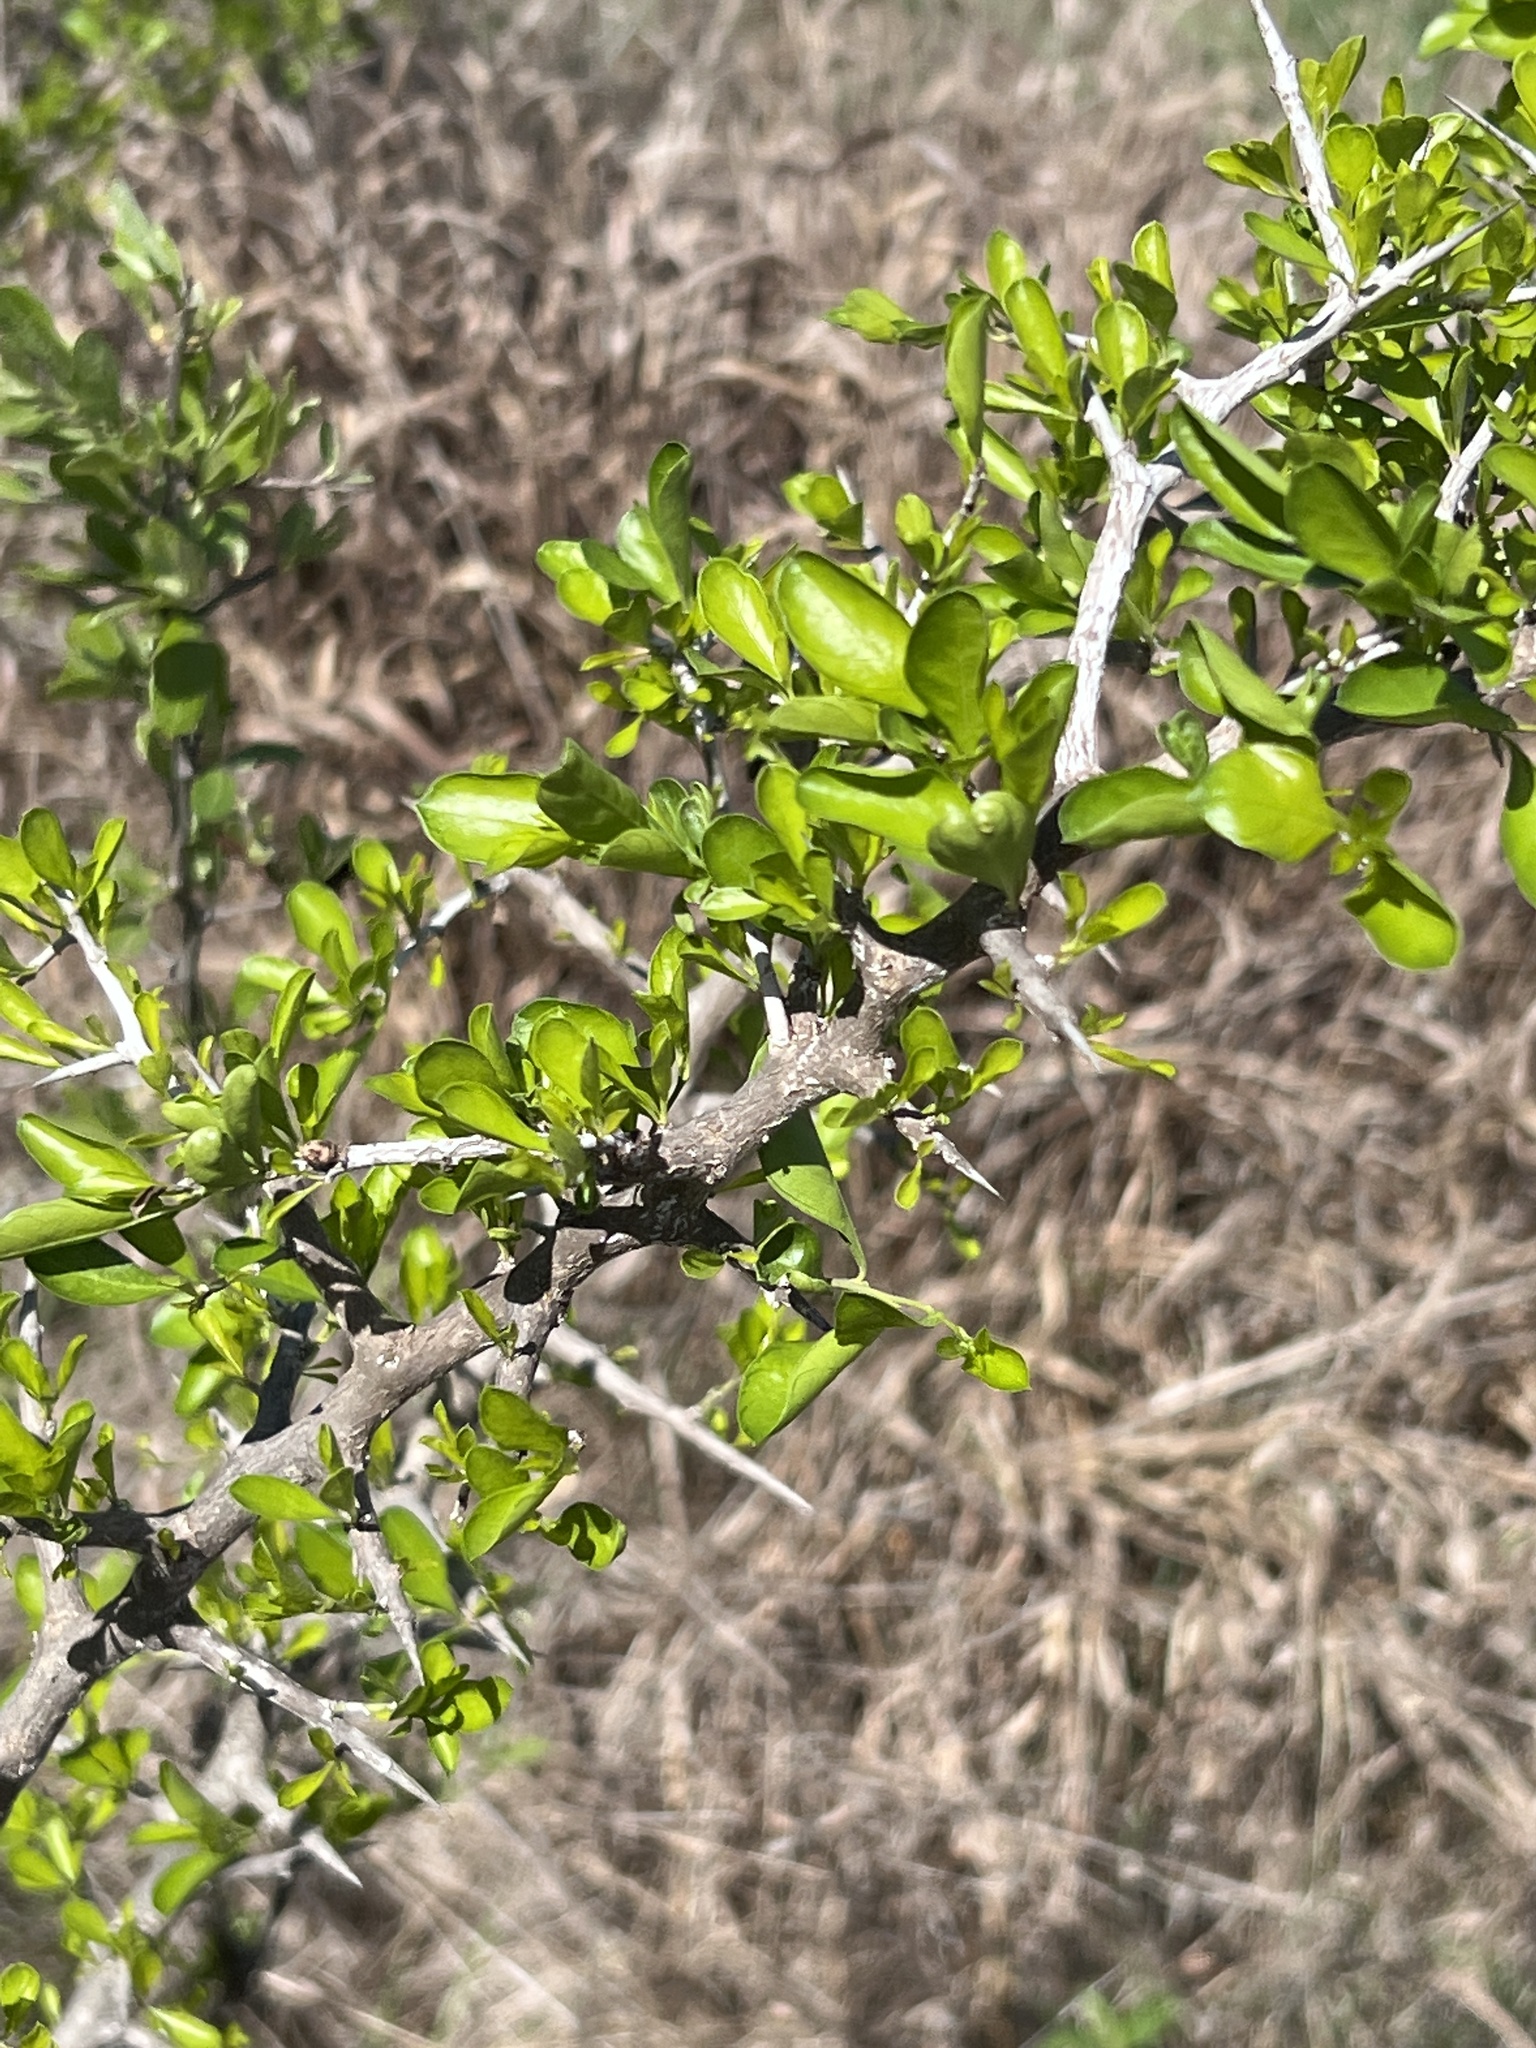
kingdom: Plantae
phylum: Tracheophyta
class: Magnoliopsida
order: Rosales
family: Rhamnaceae
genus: Condalia
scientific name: Condalia hookeri
